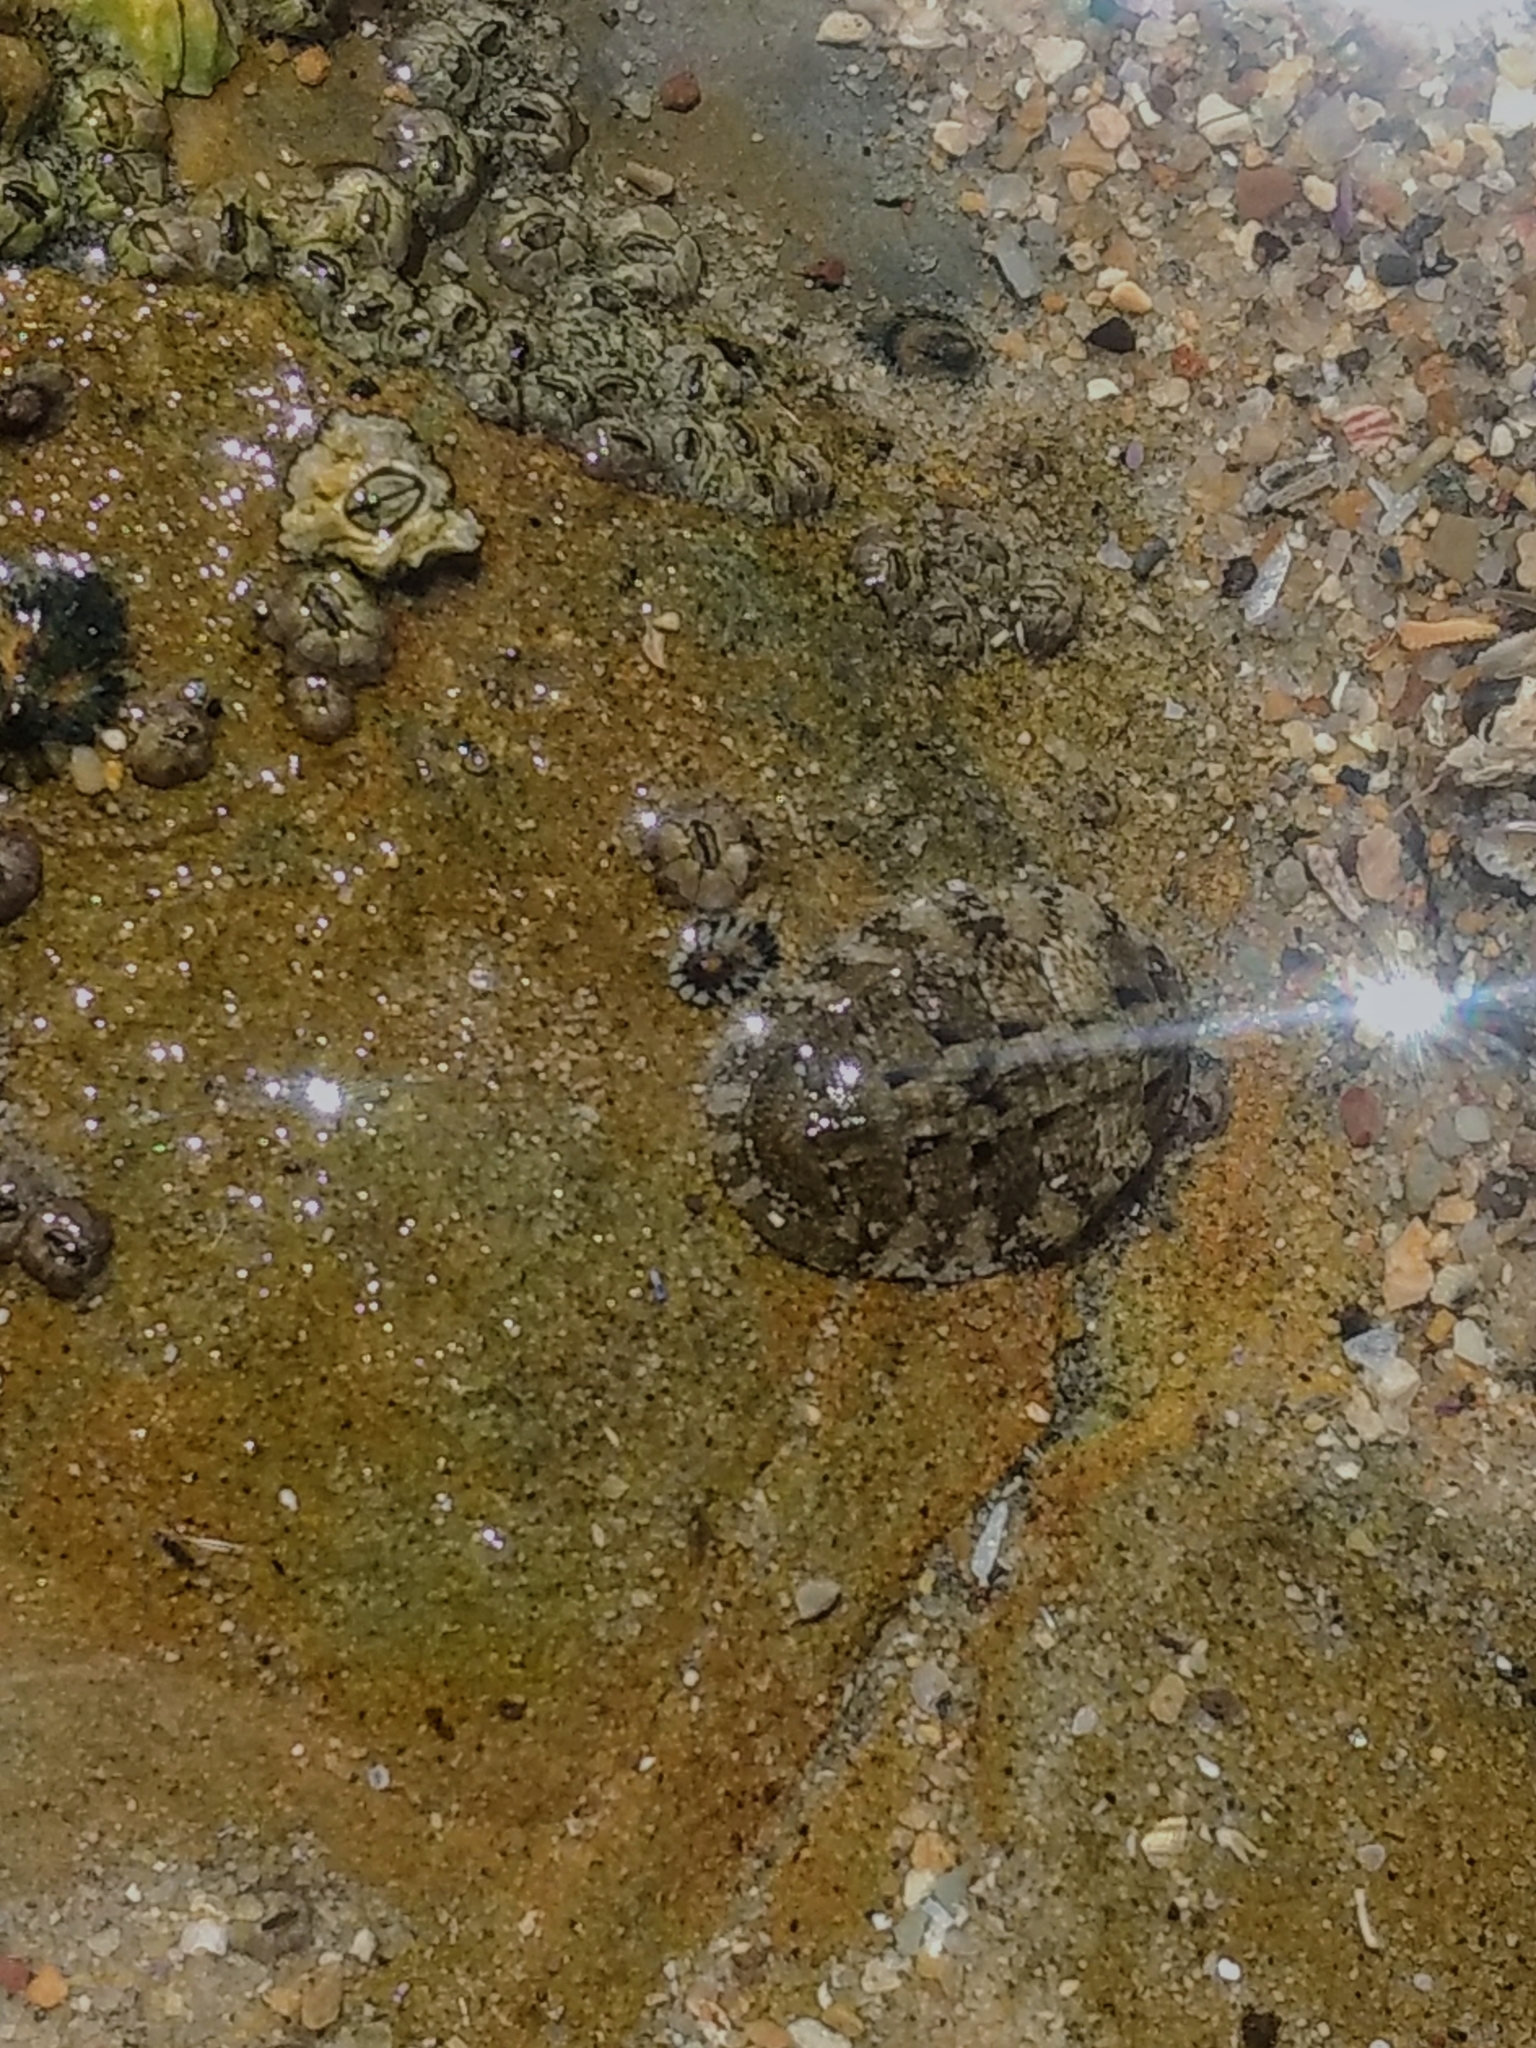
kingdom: Animalia
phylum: Mollusca
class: Polyplacophora
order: Chitonida
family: Tonicellidae
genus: Cyanoplax
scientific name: Cyanoplax hartwegii
